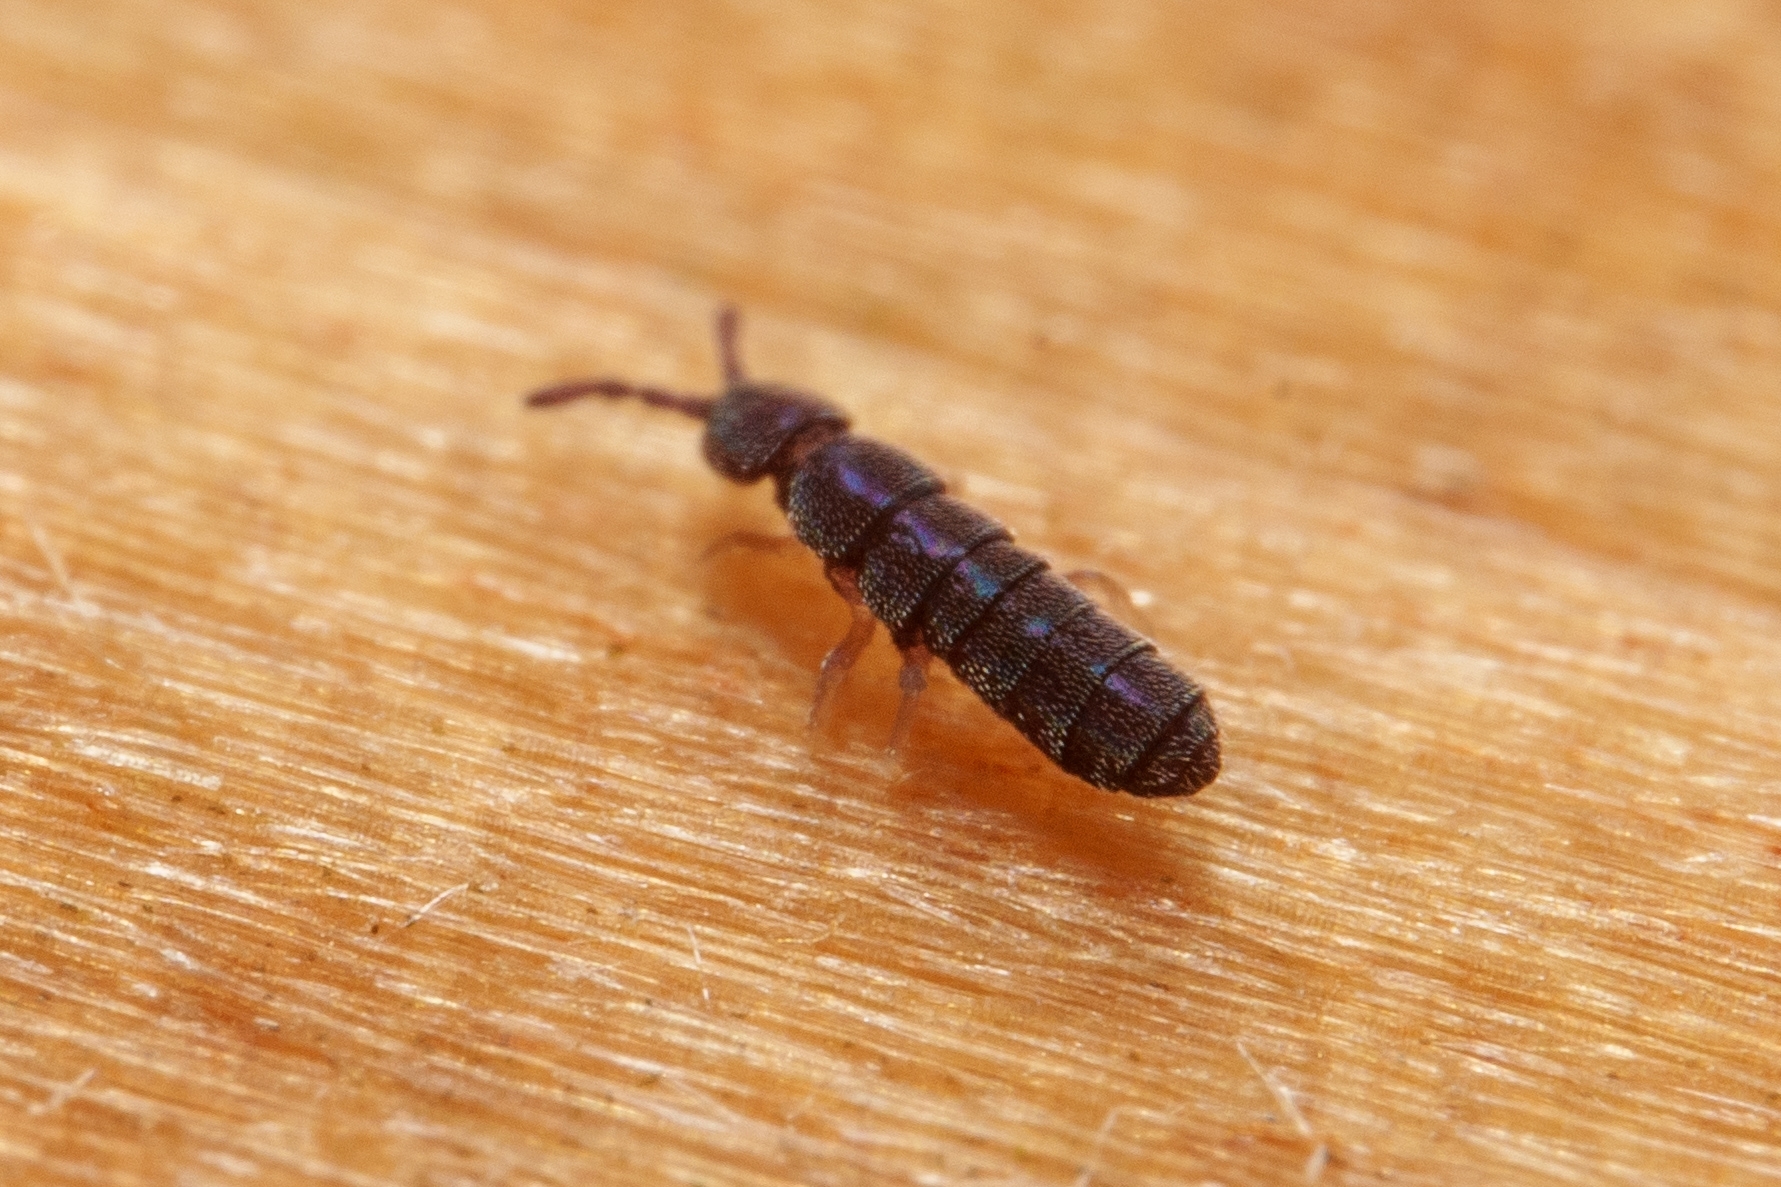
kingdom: Animalia
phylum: Arthropoda
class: Collembola
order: Entomobryomorpha
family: Isotomidae
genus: Vertagopus
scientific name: Vertagopus asiaticus
